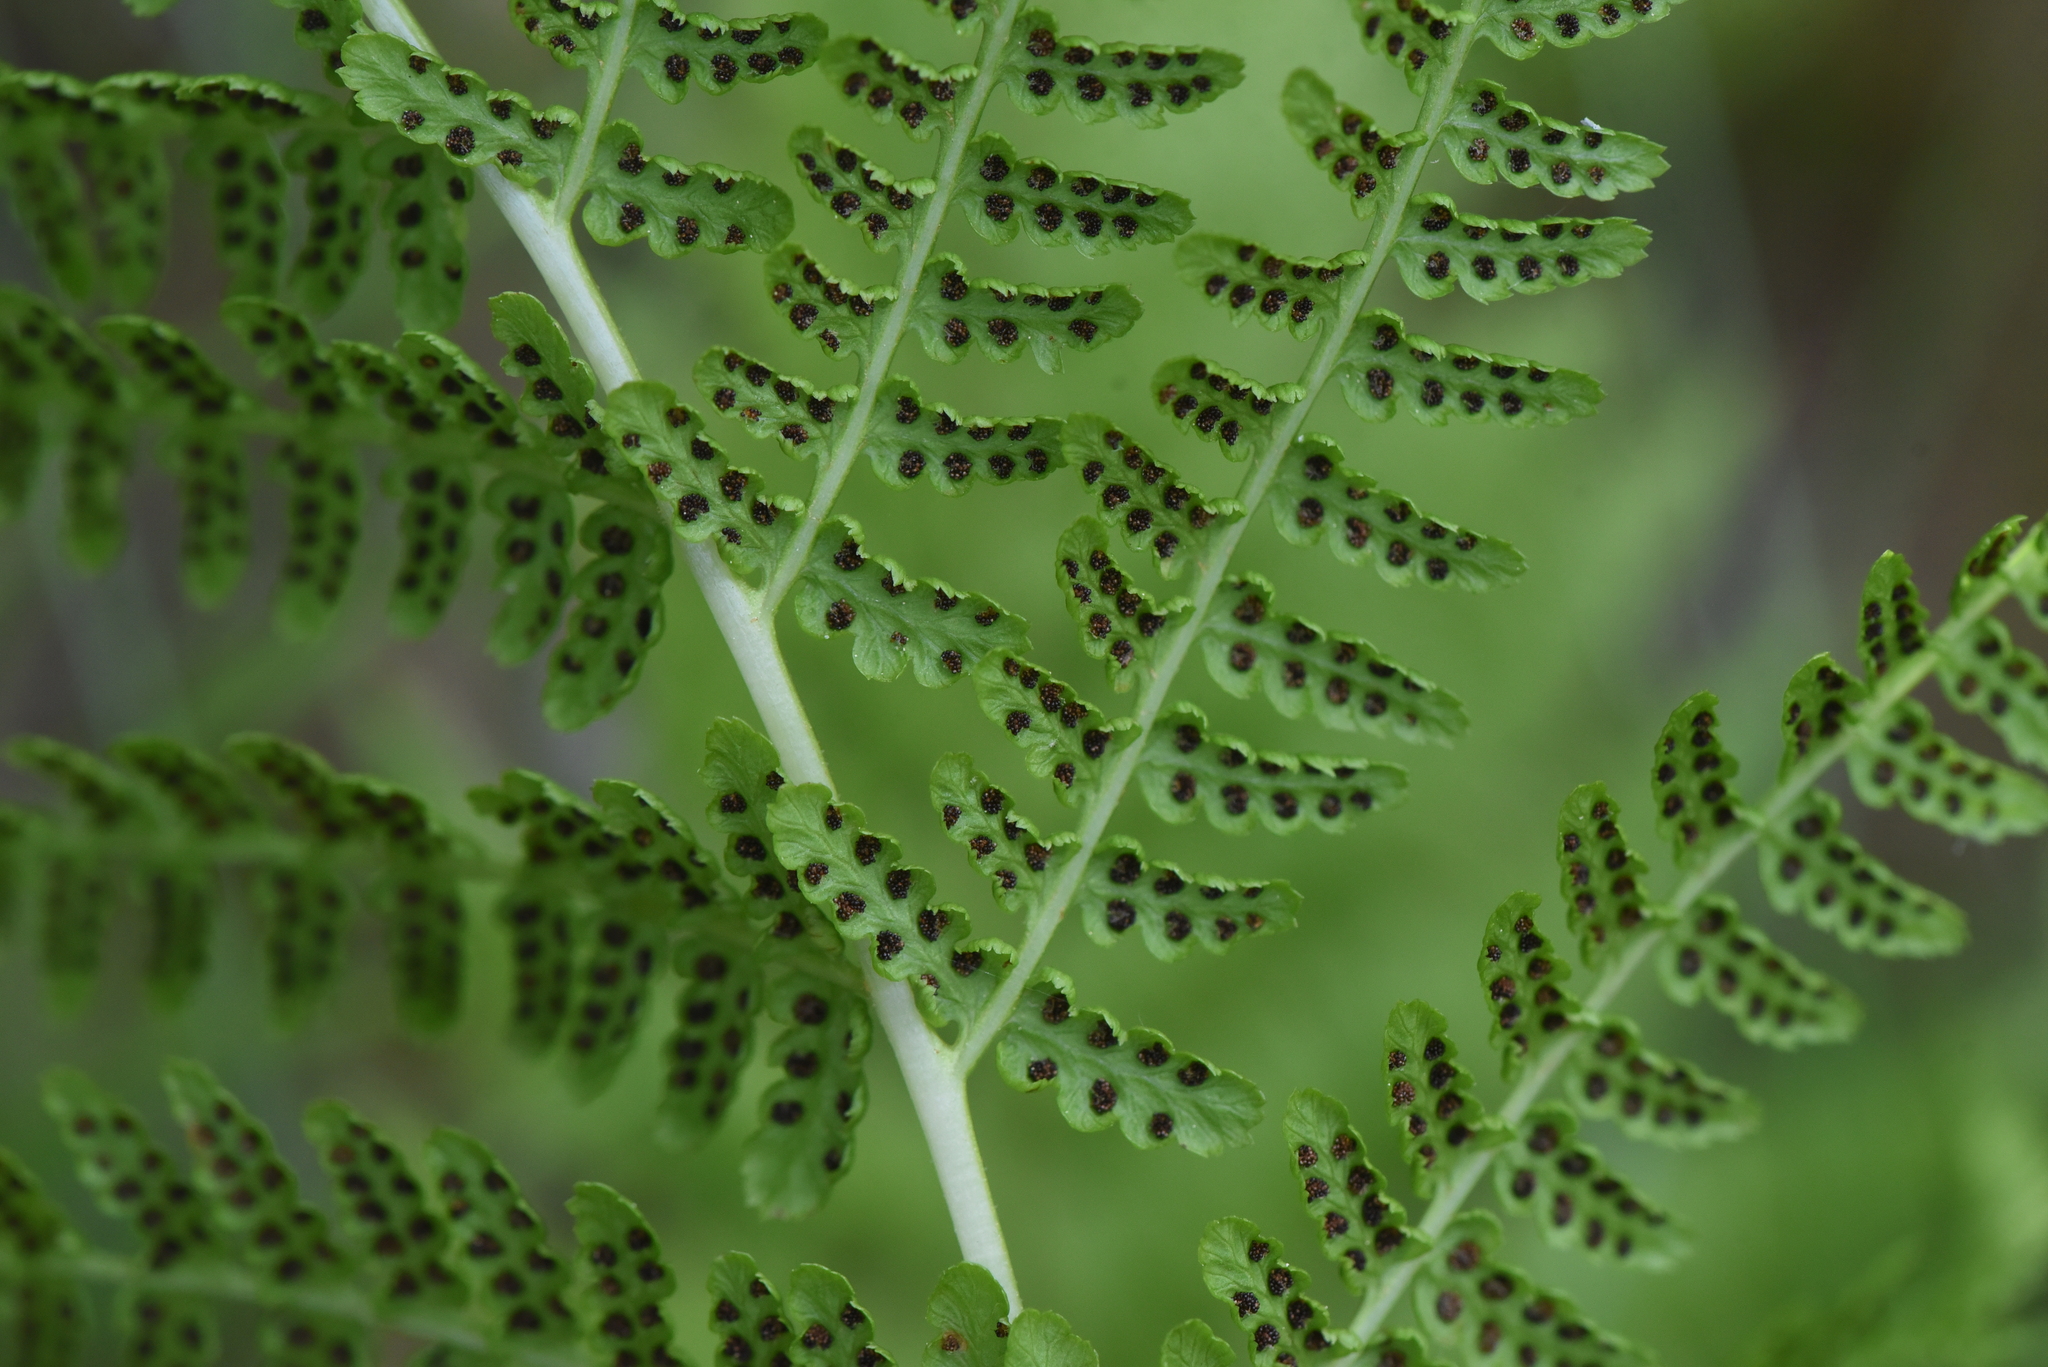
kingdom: Plantae
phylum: Tracheophyta
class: Polypodiopsida
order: Polypodiales
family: Athyriaceae
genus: Athyrium
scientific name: Athyrium filix-femina
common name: Lady fern
